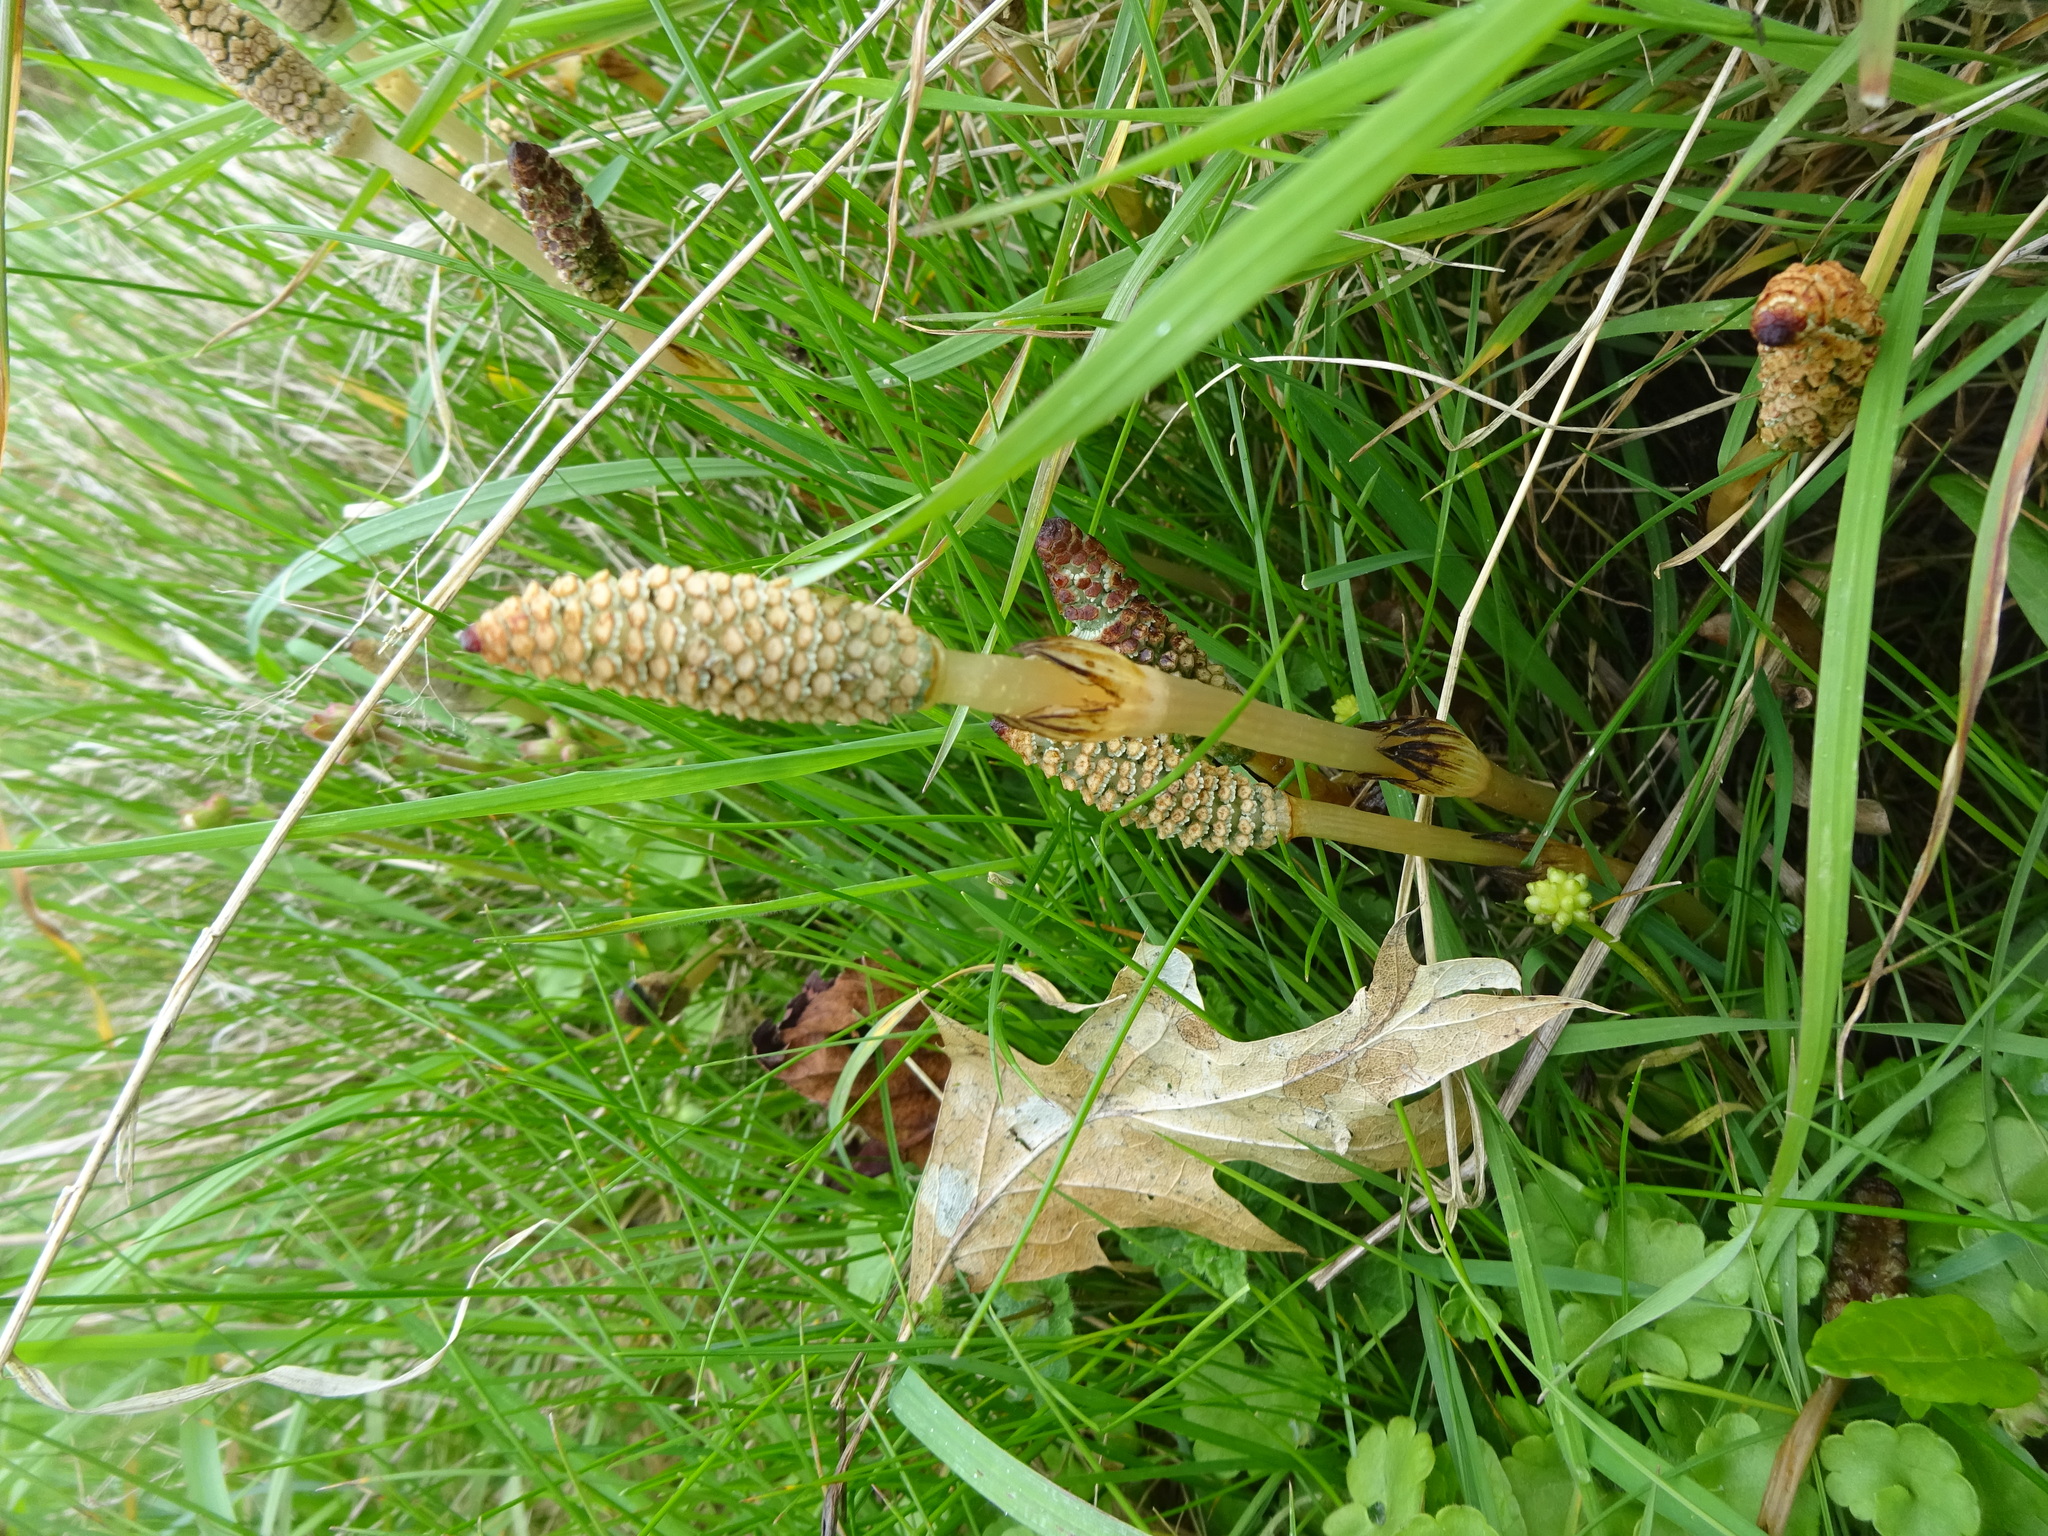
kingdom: Plantae
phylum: Tracheophyta
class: Polypodiopsida
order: Equisetales
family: Equisetaceae
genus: Equisetum
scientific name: Equisetum arvense
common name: Field horsetail
